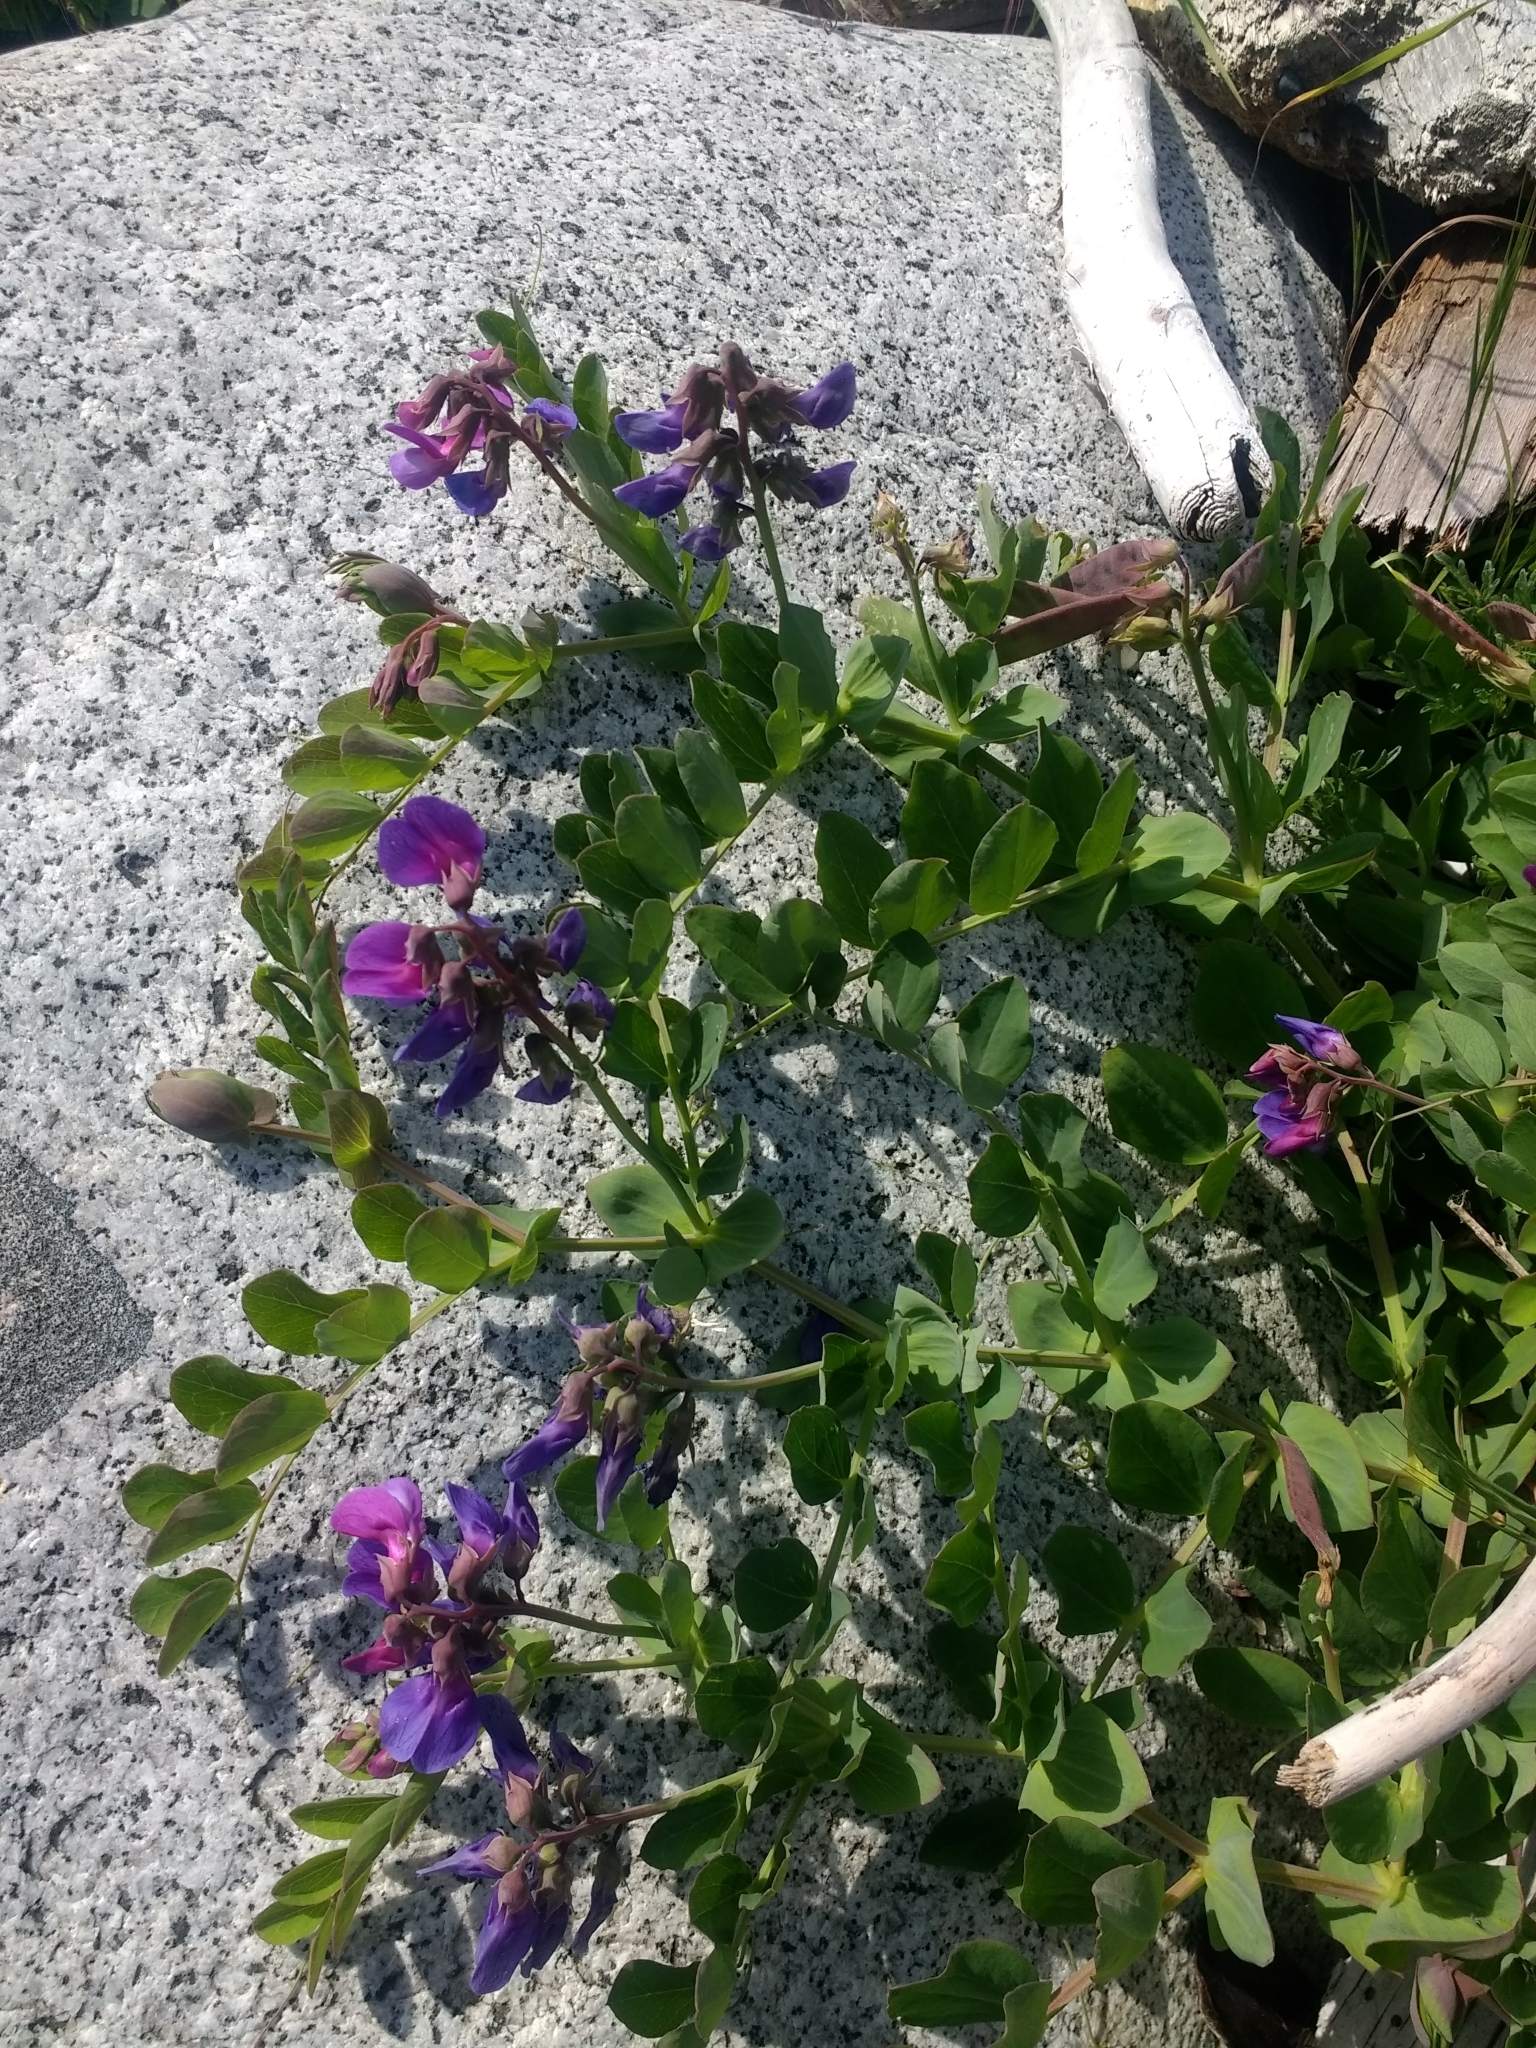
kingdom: Plantae
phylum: Tracheophyta
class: Magnoliopsida
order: Fabales
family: Fabaceae
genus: Lathyrus
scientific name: Lathyrus japonicus
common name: Sea pea
